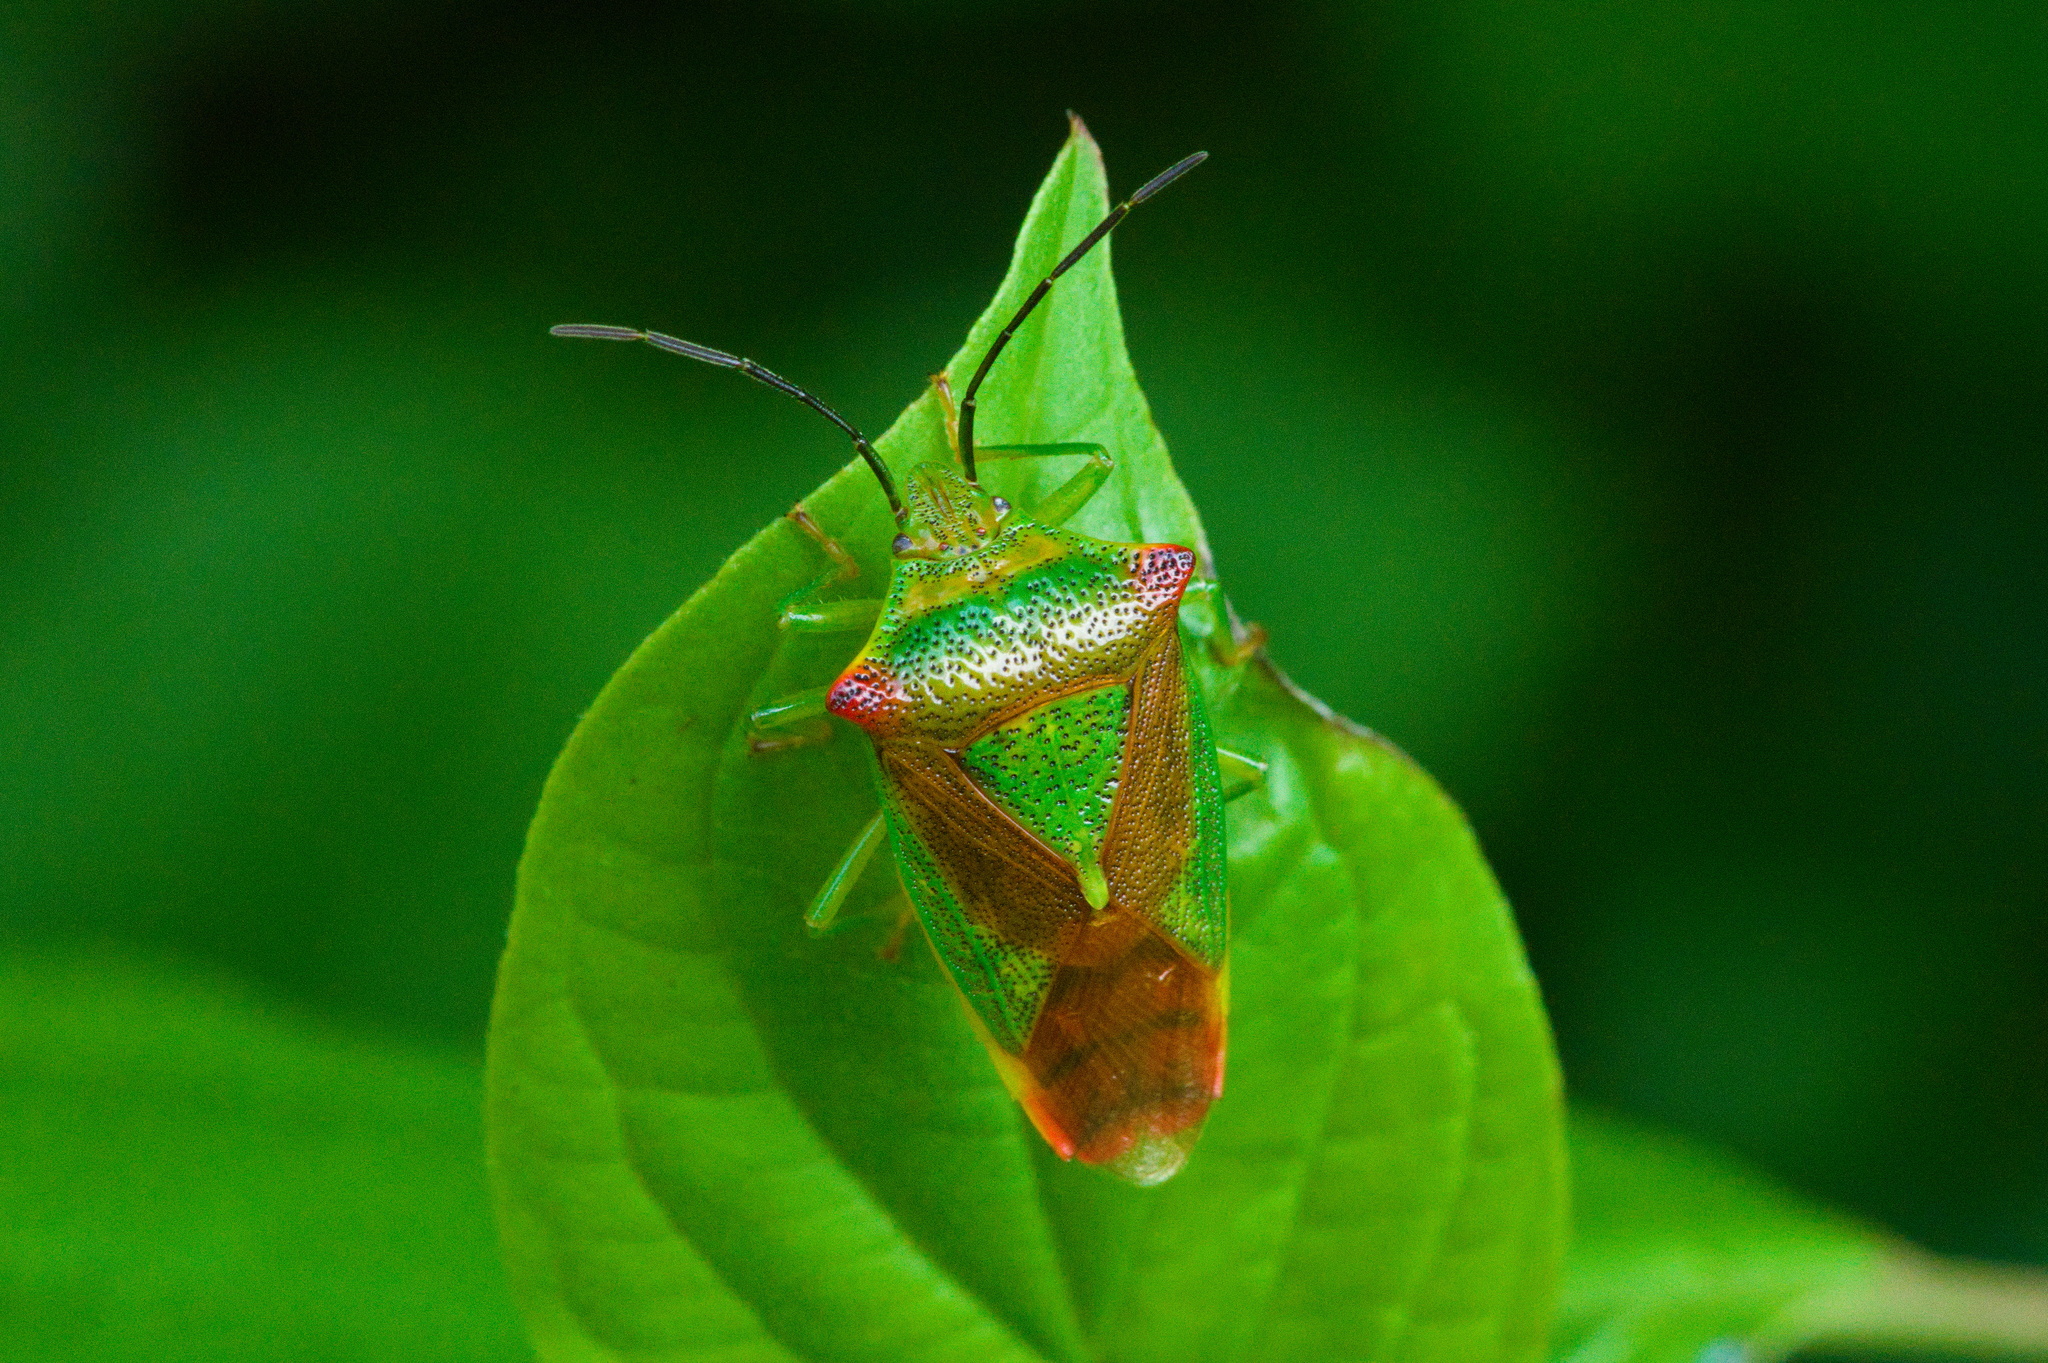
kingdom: Animalia
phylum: Arthropoda
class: Insecta
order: Hemiptera
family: Acanthosomatidae
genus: Acanthosoma
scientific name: Acanthosoma haemorrhoidale
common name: Hawthorn shieldbug
